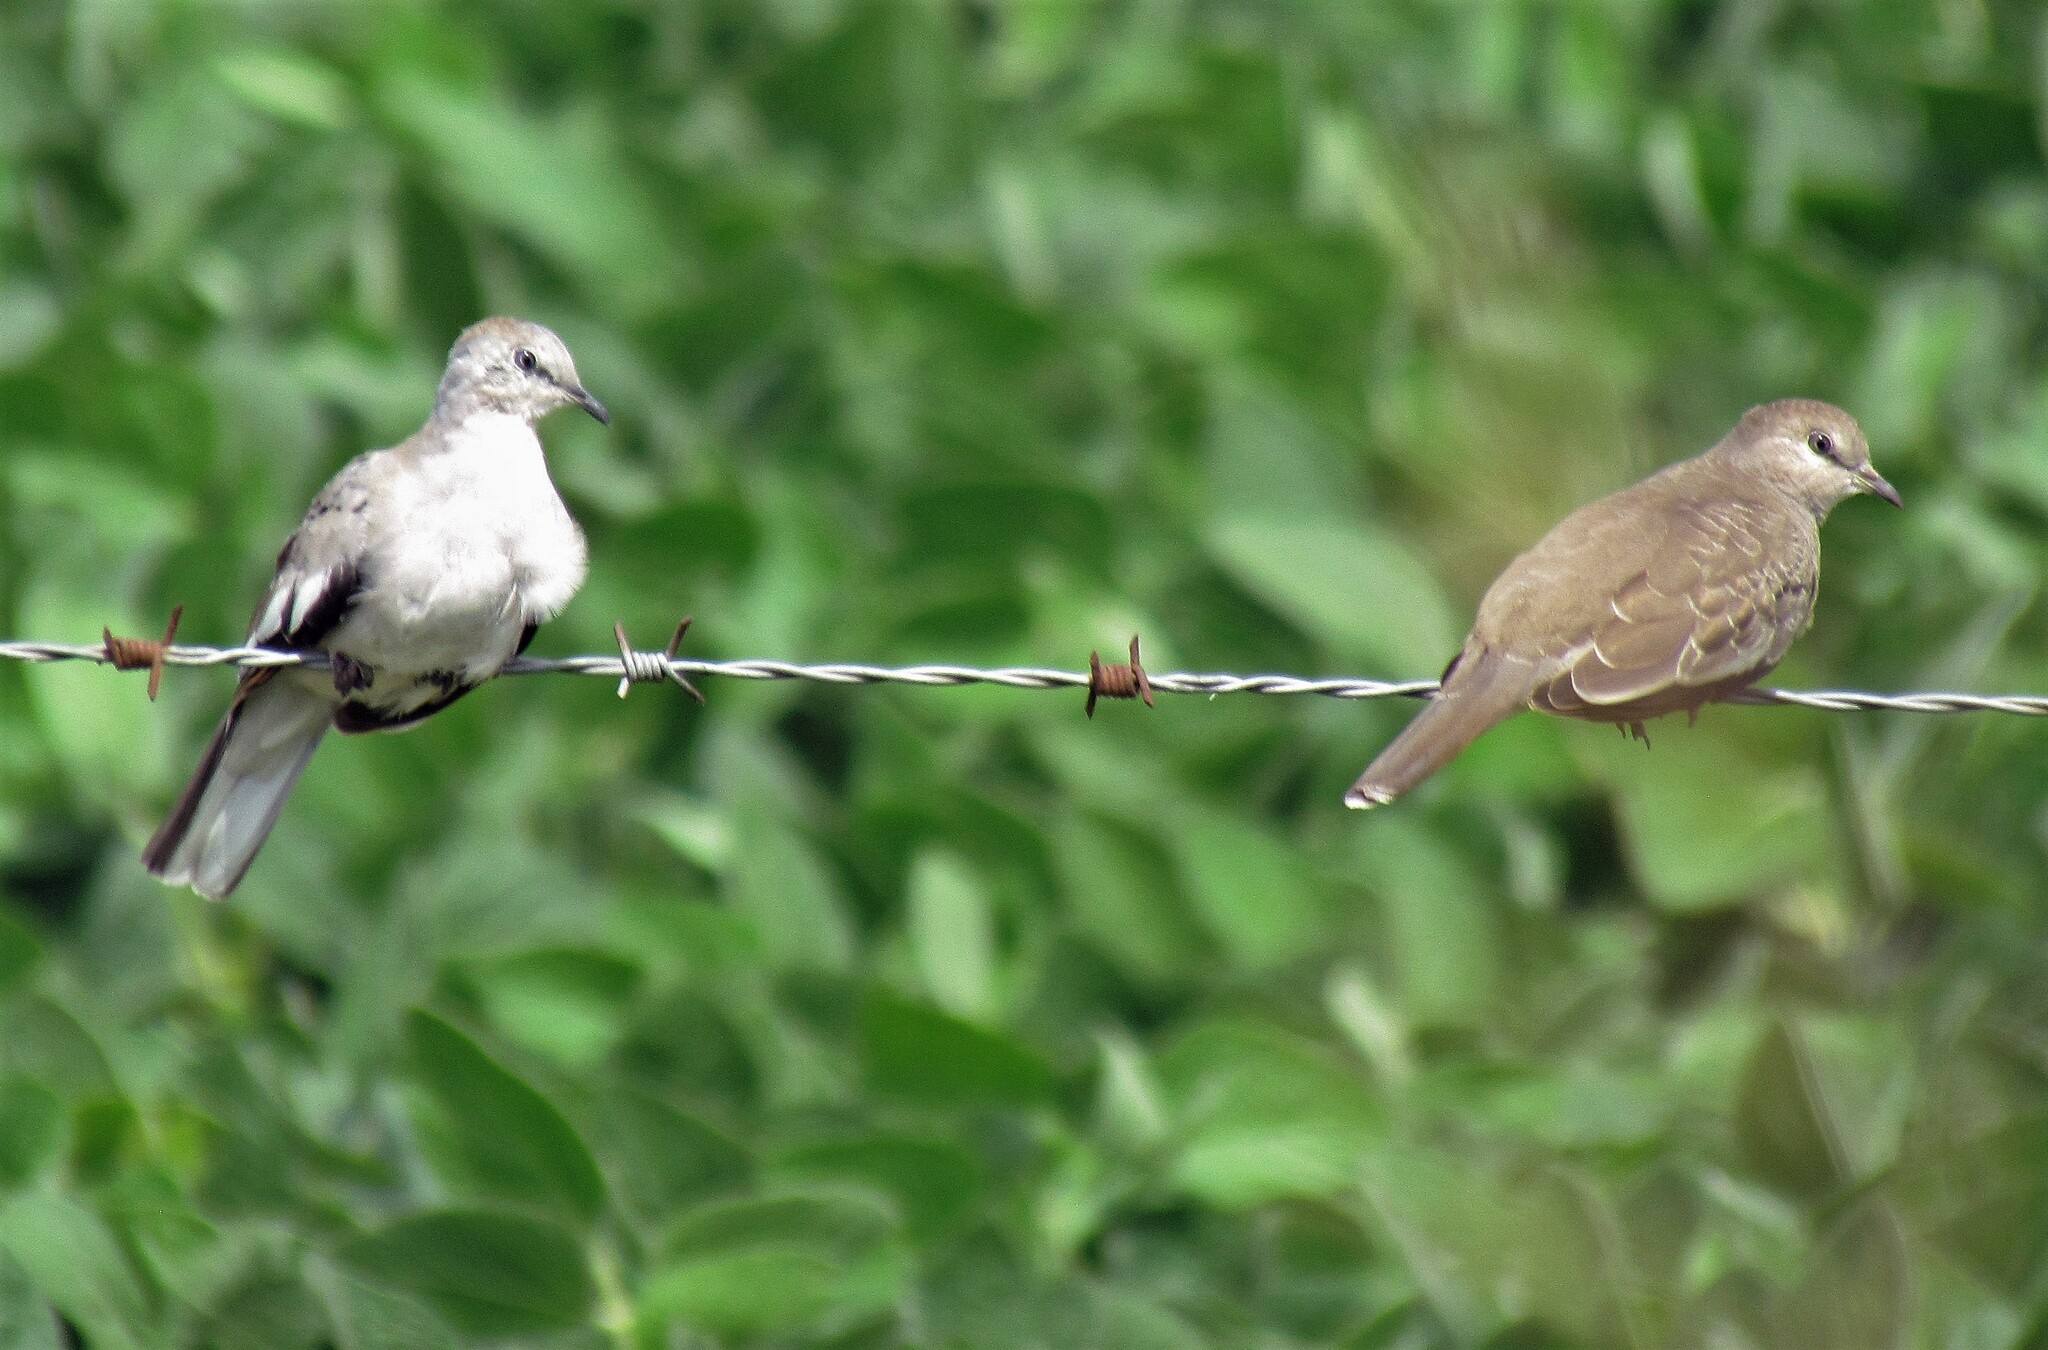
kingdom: Animalia
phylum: Chordata
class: Aves
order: Columbiformes
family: Columbidae
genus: Columbina
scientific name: Columbina picui
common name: Picui ground dove
